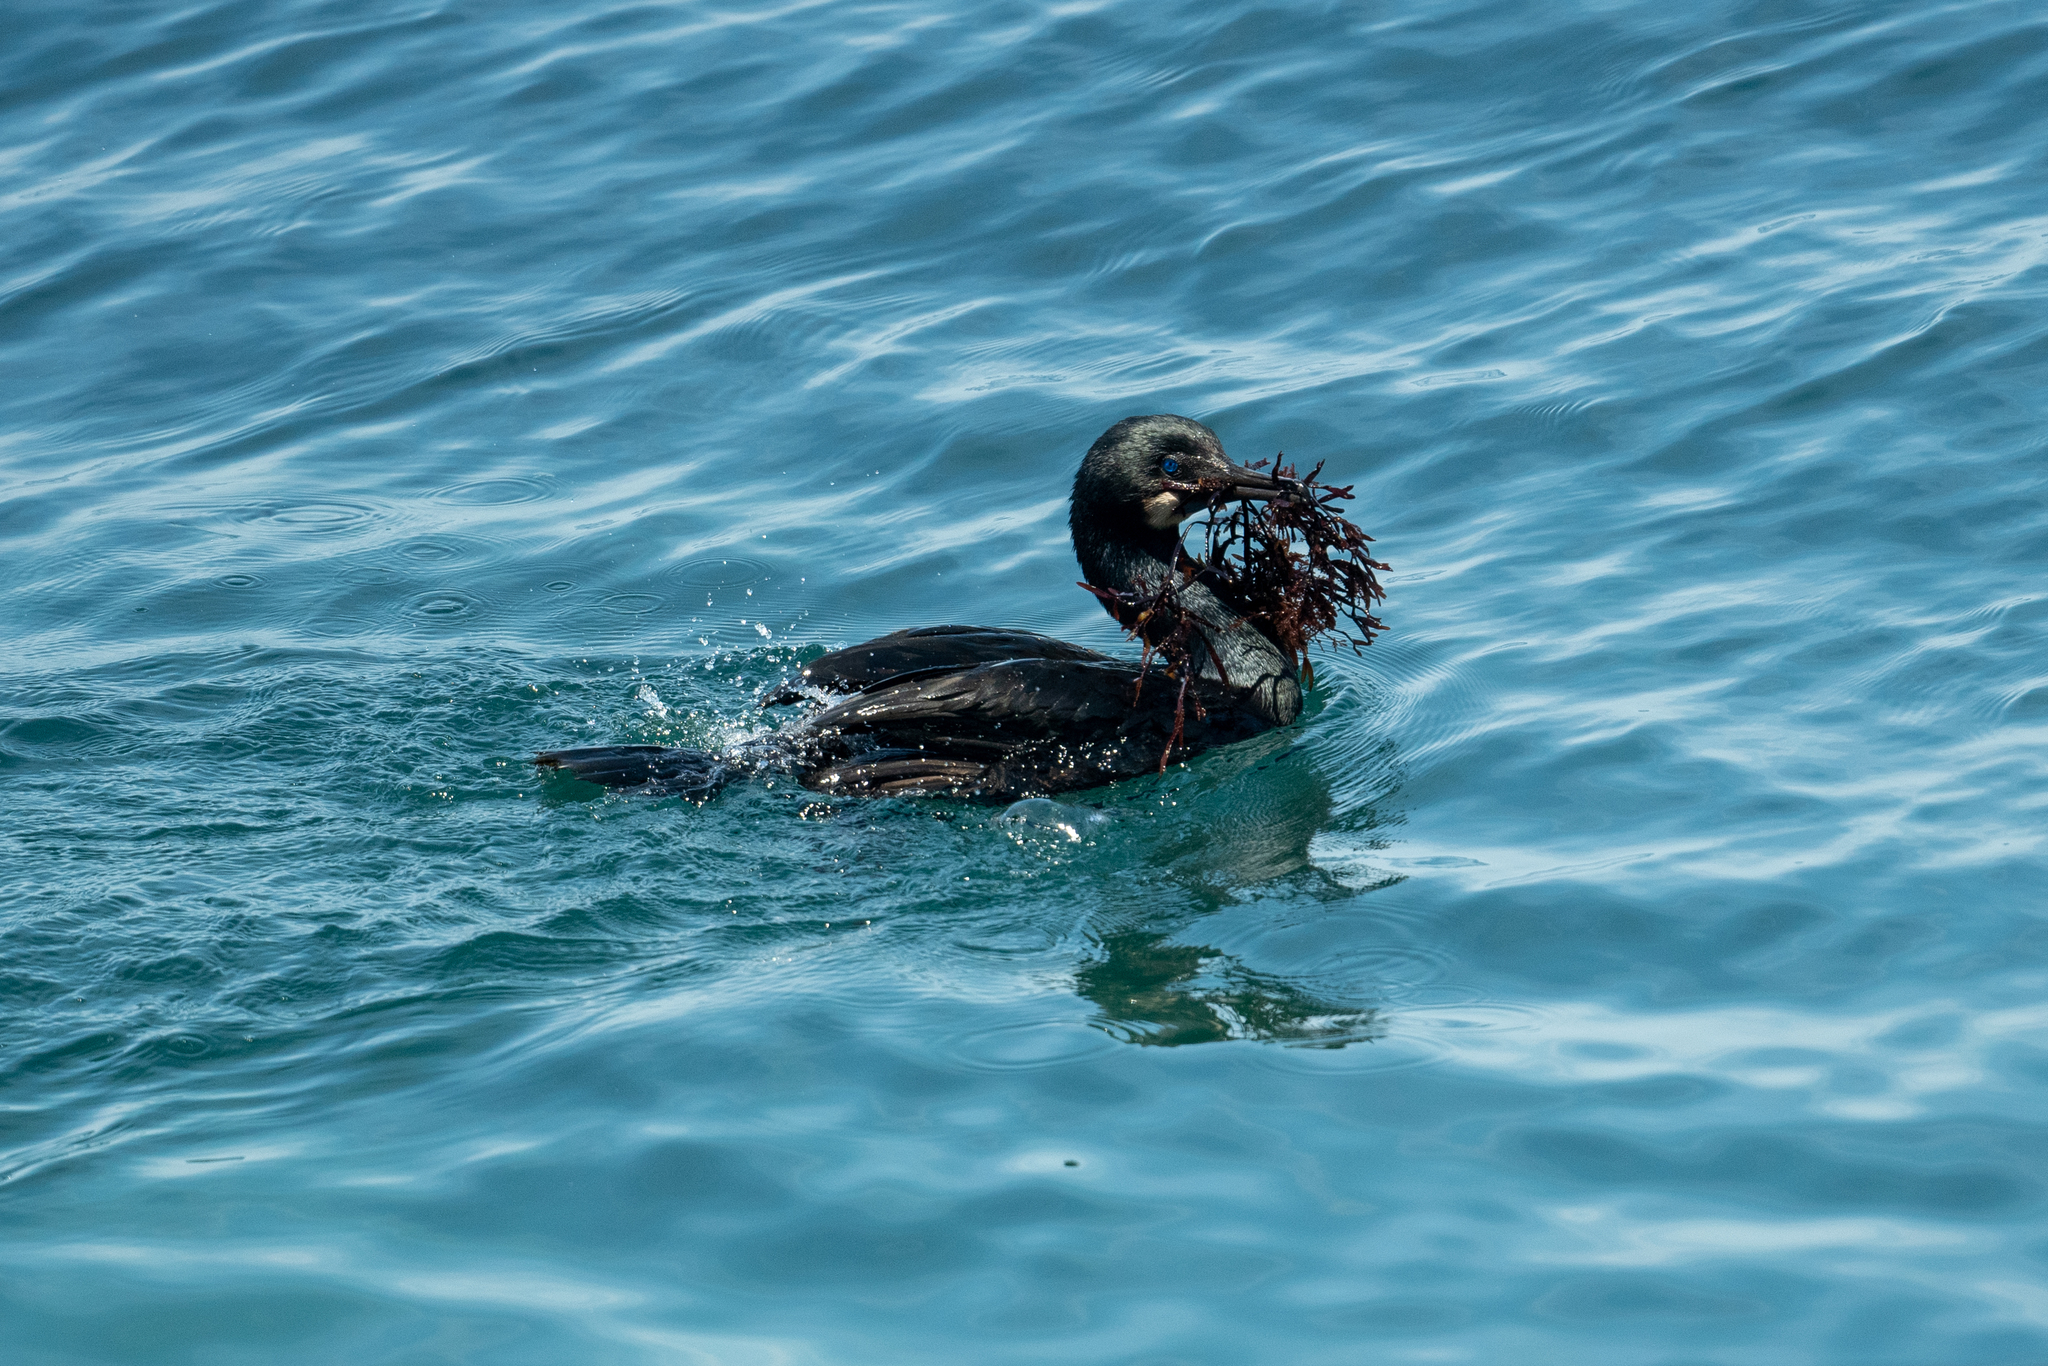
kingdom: Animalia
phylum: Chordata
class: Aves
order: Suliformes
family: Phalacrocoracidae
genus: Urile
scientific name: Urile penicillatus
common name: Brandt's cormorant
